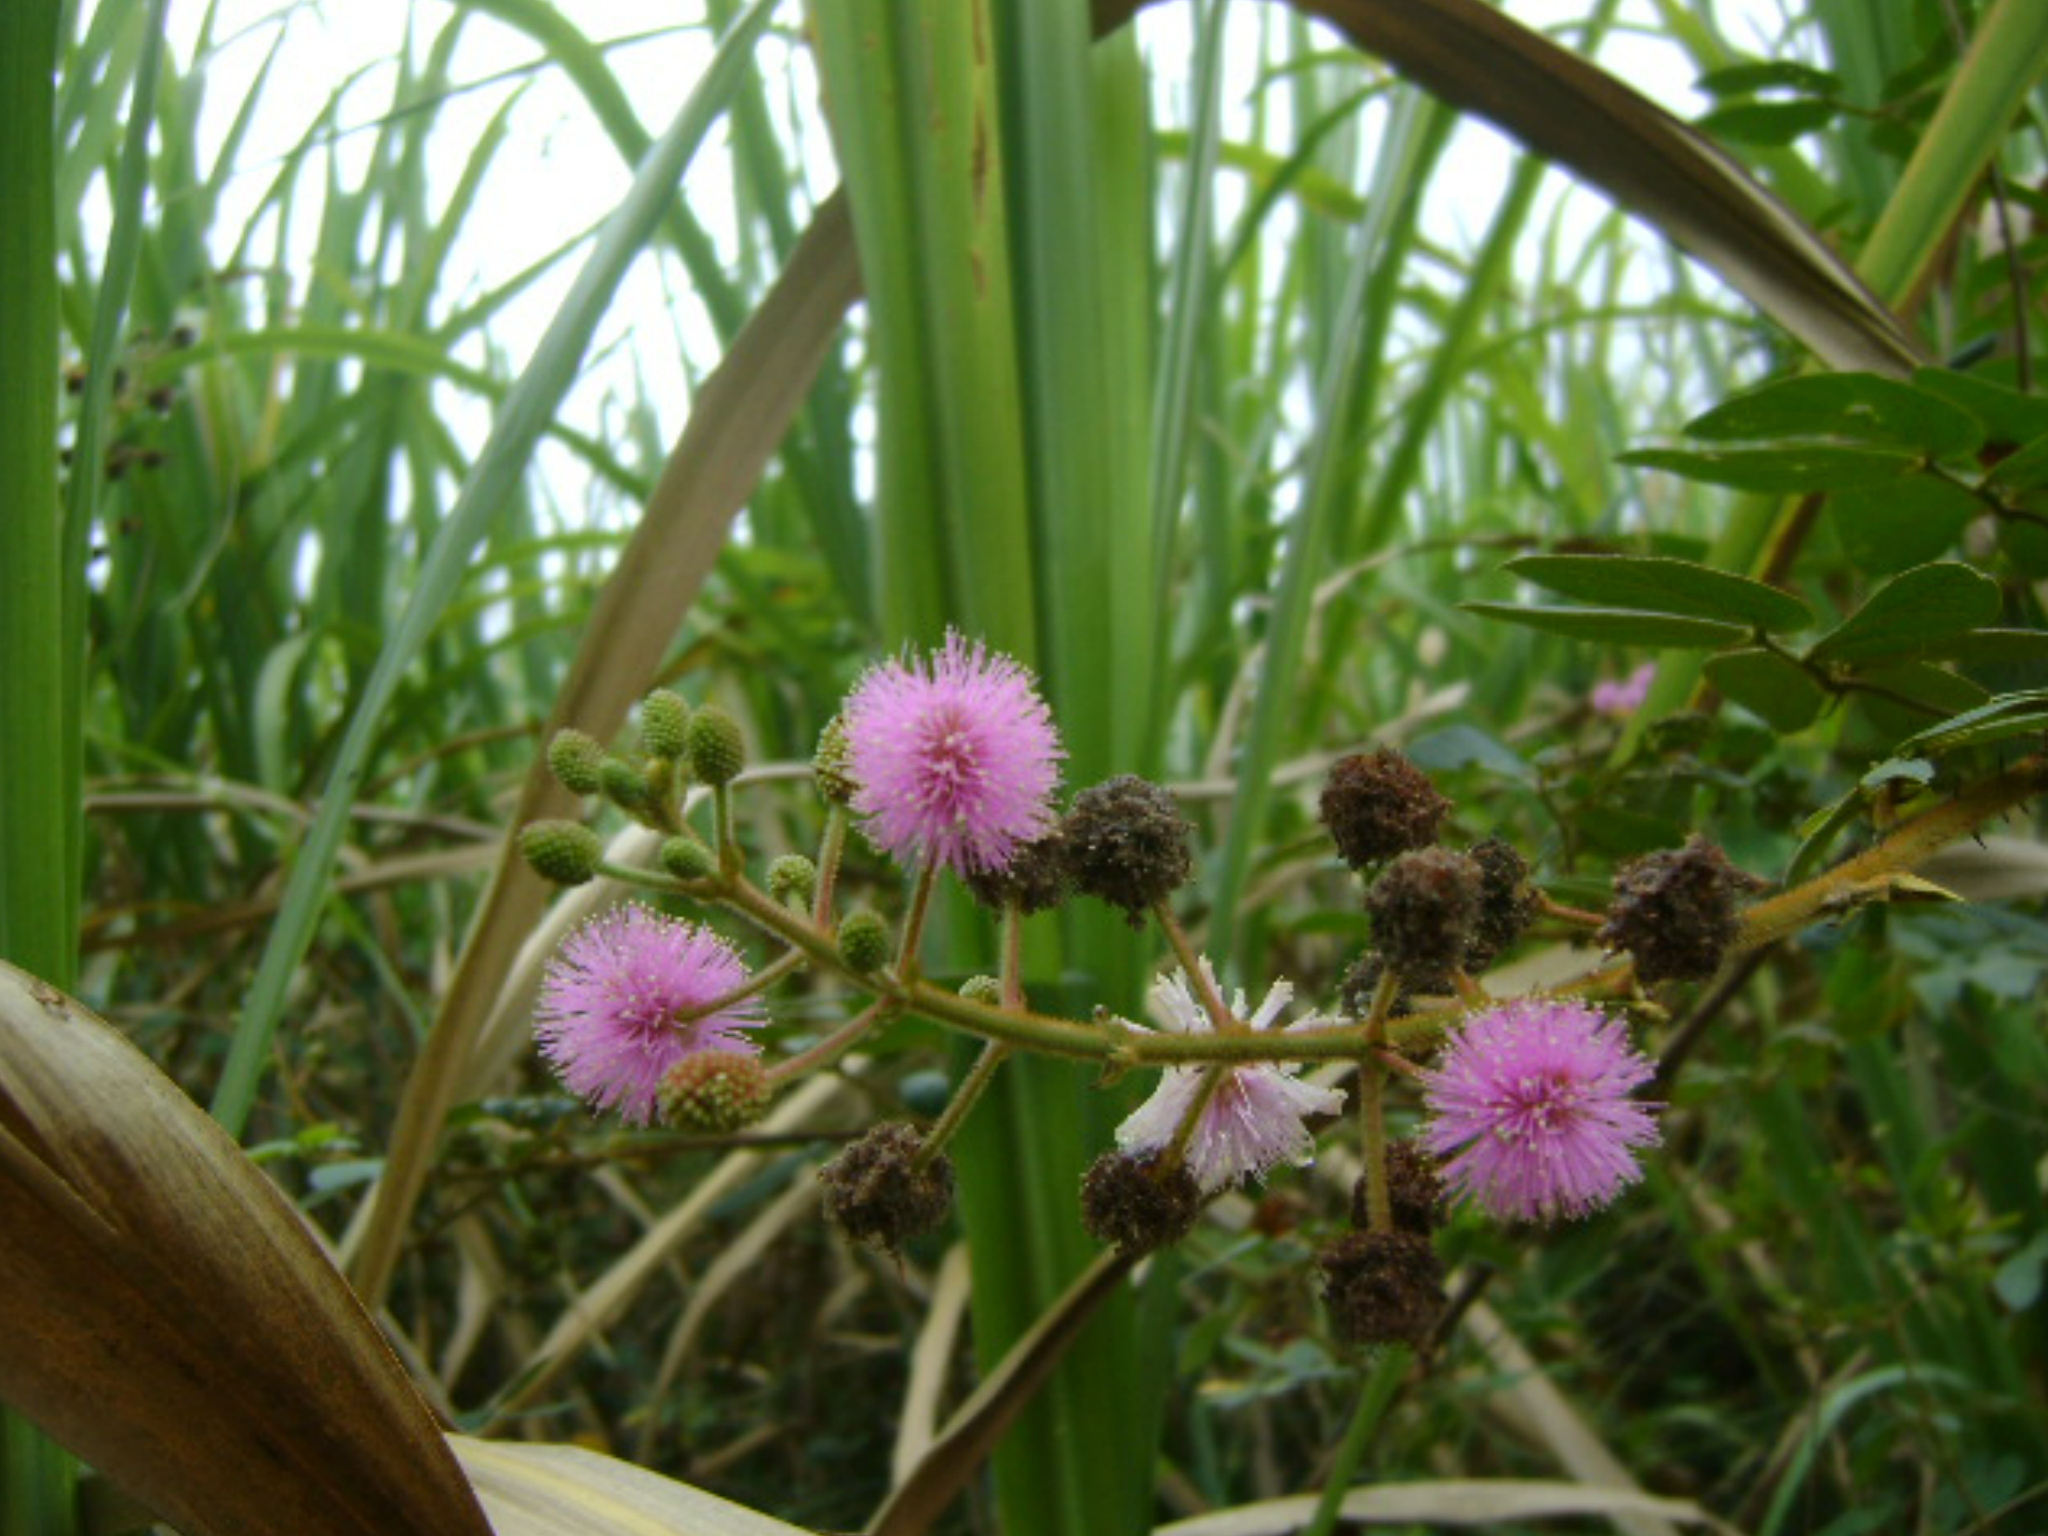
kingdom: Plantae
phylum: Tracheophyta
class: Magnoliopsida
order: Fabales
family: Fabaceae
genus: Mimosa
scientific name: Mimosa albida
